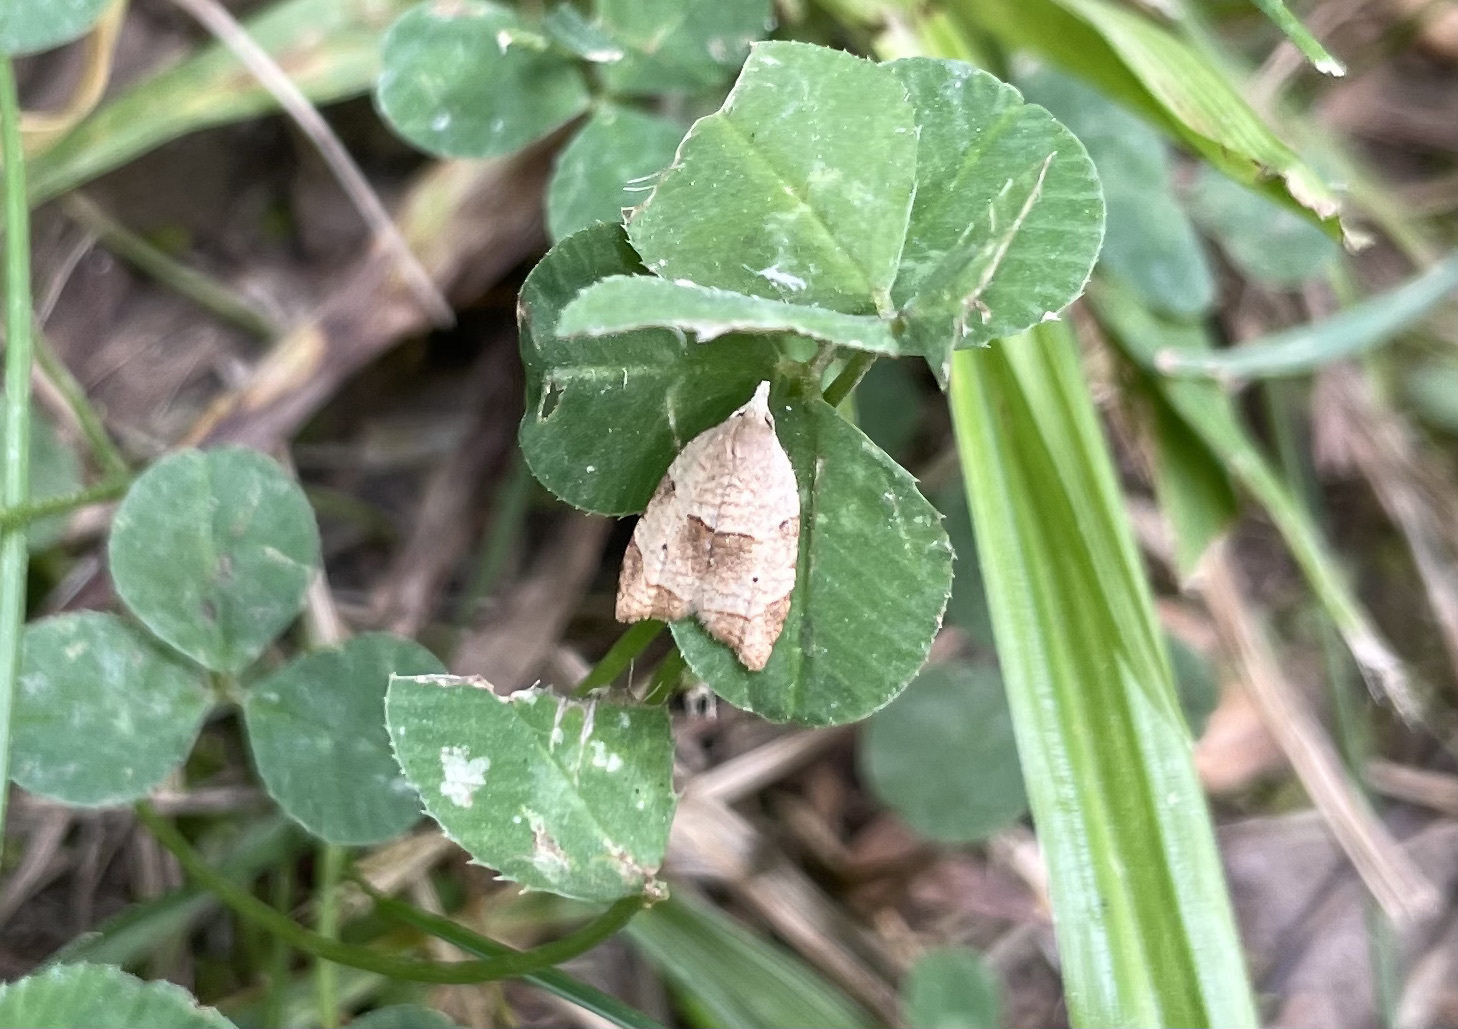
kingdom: Animalia
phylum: Arthropoda
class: Insecta
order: Lepidoptera
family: Tortricidae
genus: Coelostathma
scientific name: Coelostathma discopunctana
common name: Batman moth
